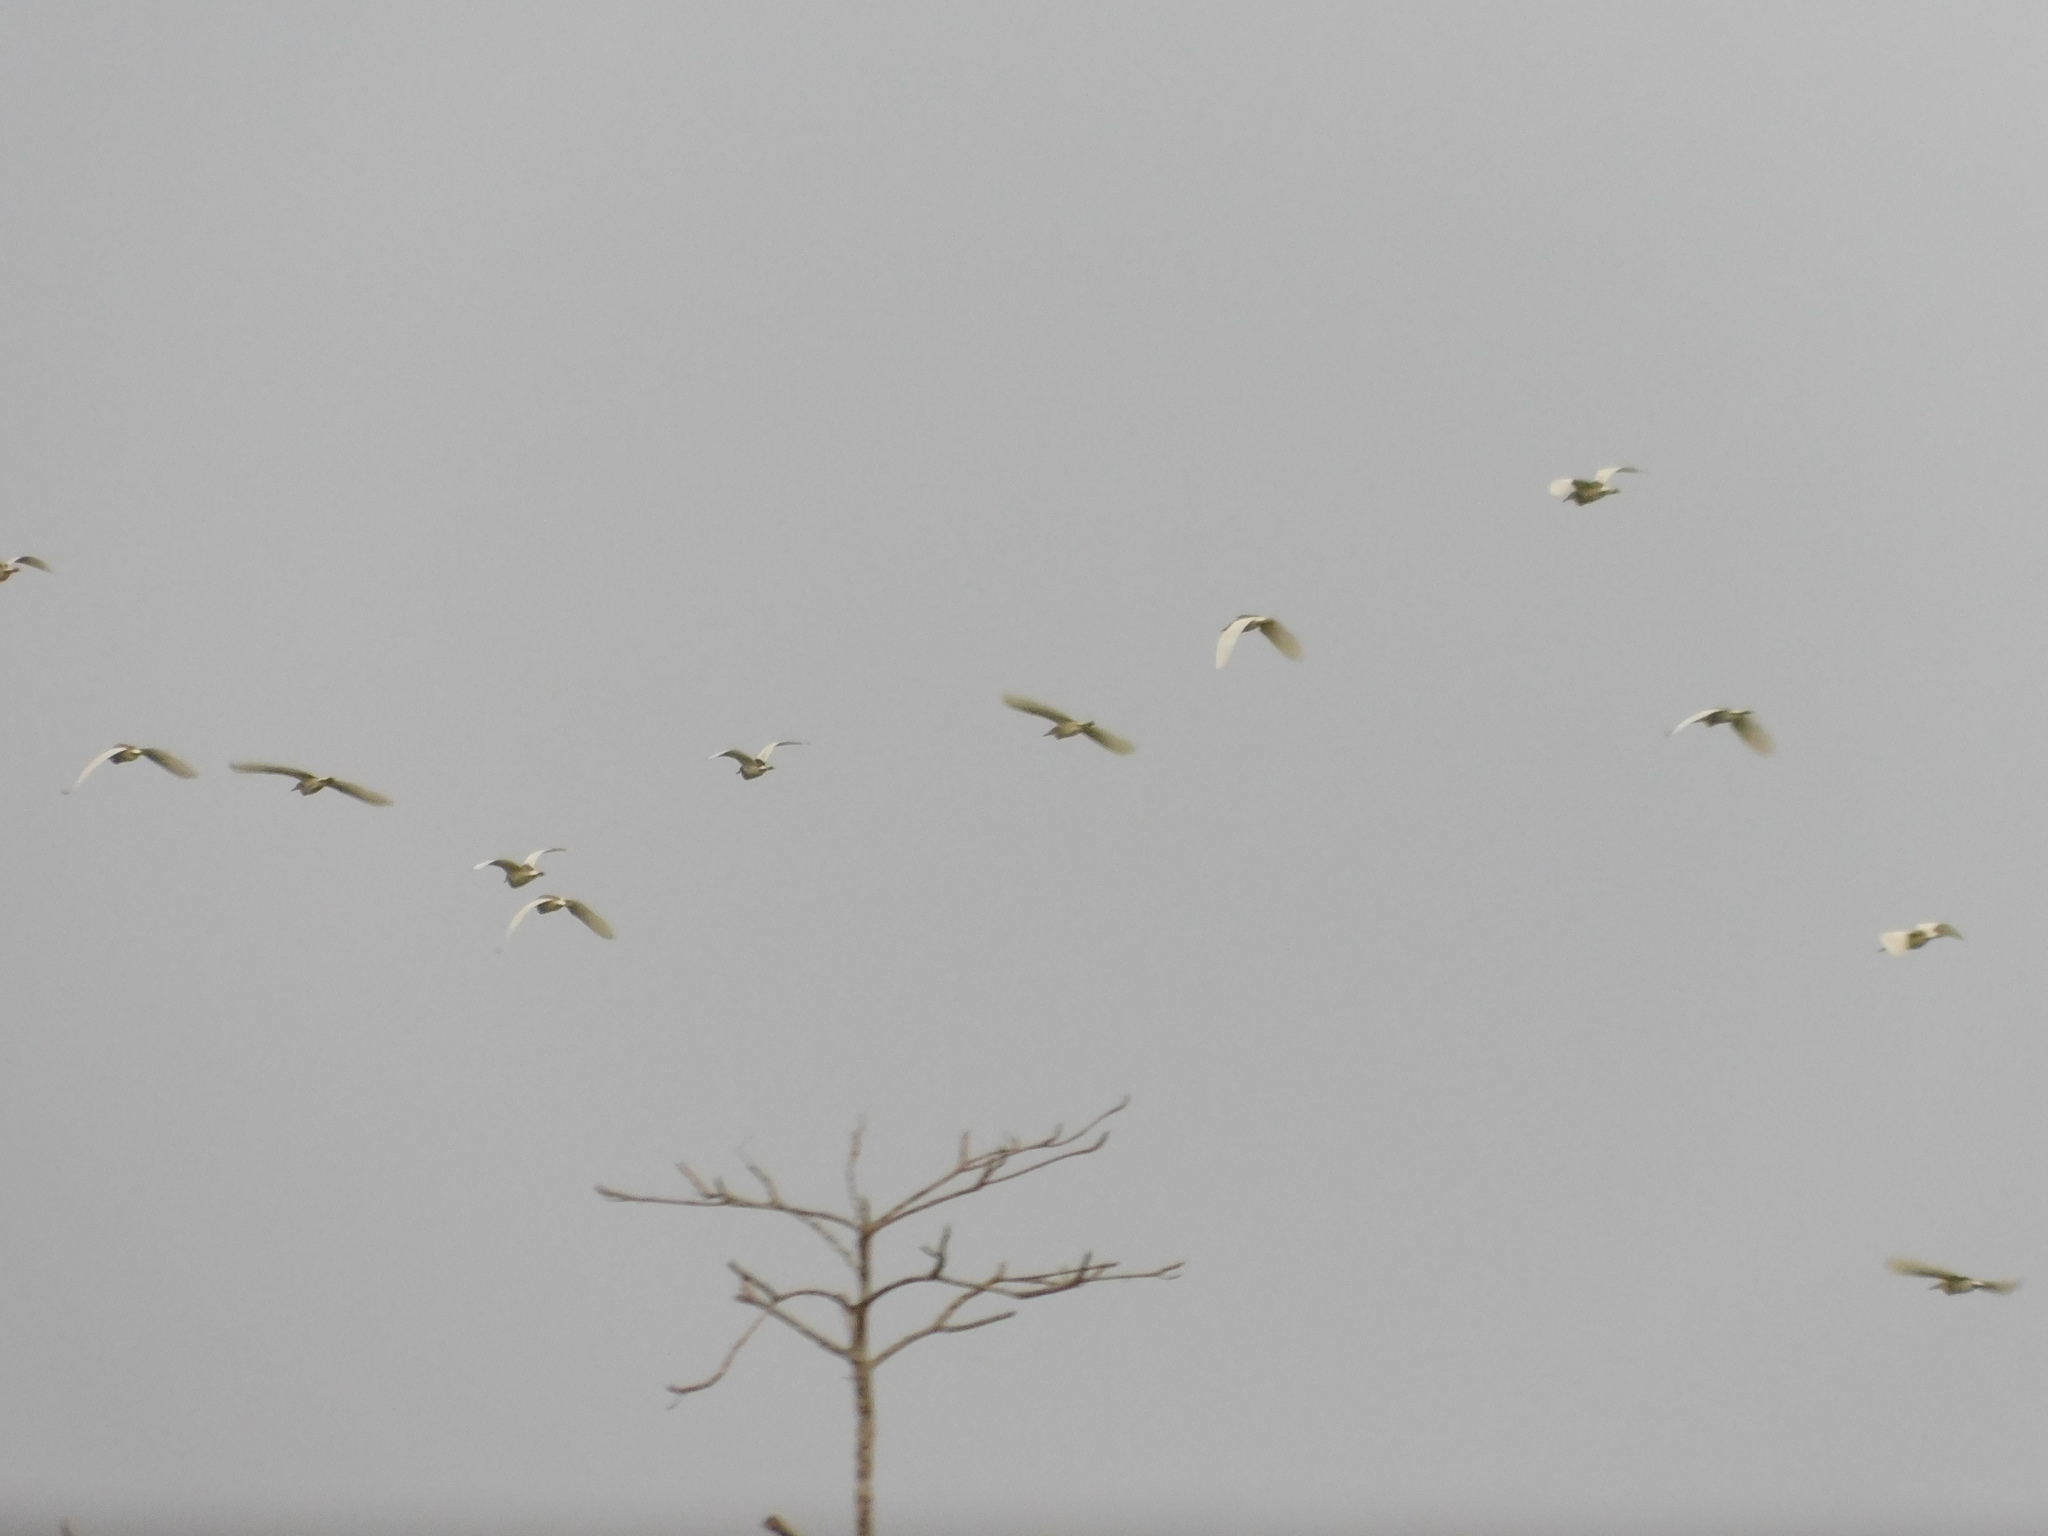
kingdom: Animalia
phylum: Chordata
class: Aves
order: Pelecaniformes
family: Ardeidae
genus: Ardeola
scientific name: Ardeola speciosa
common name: Javan pond heron
